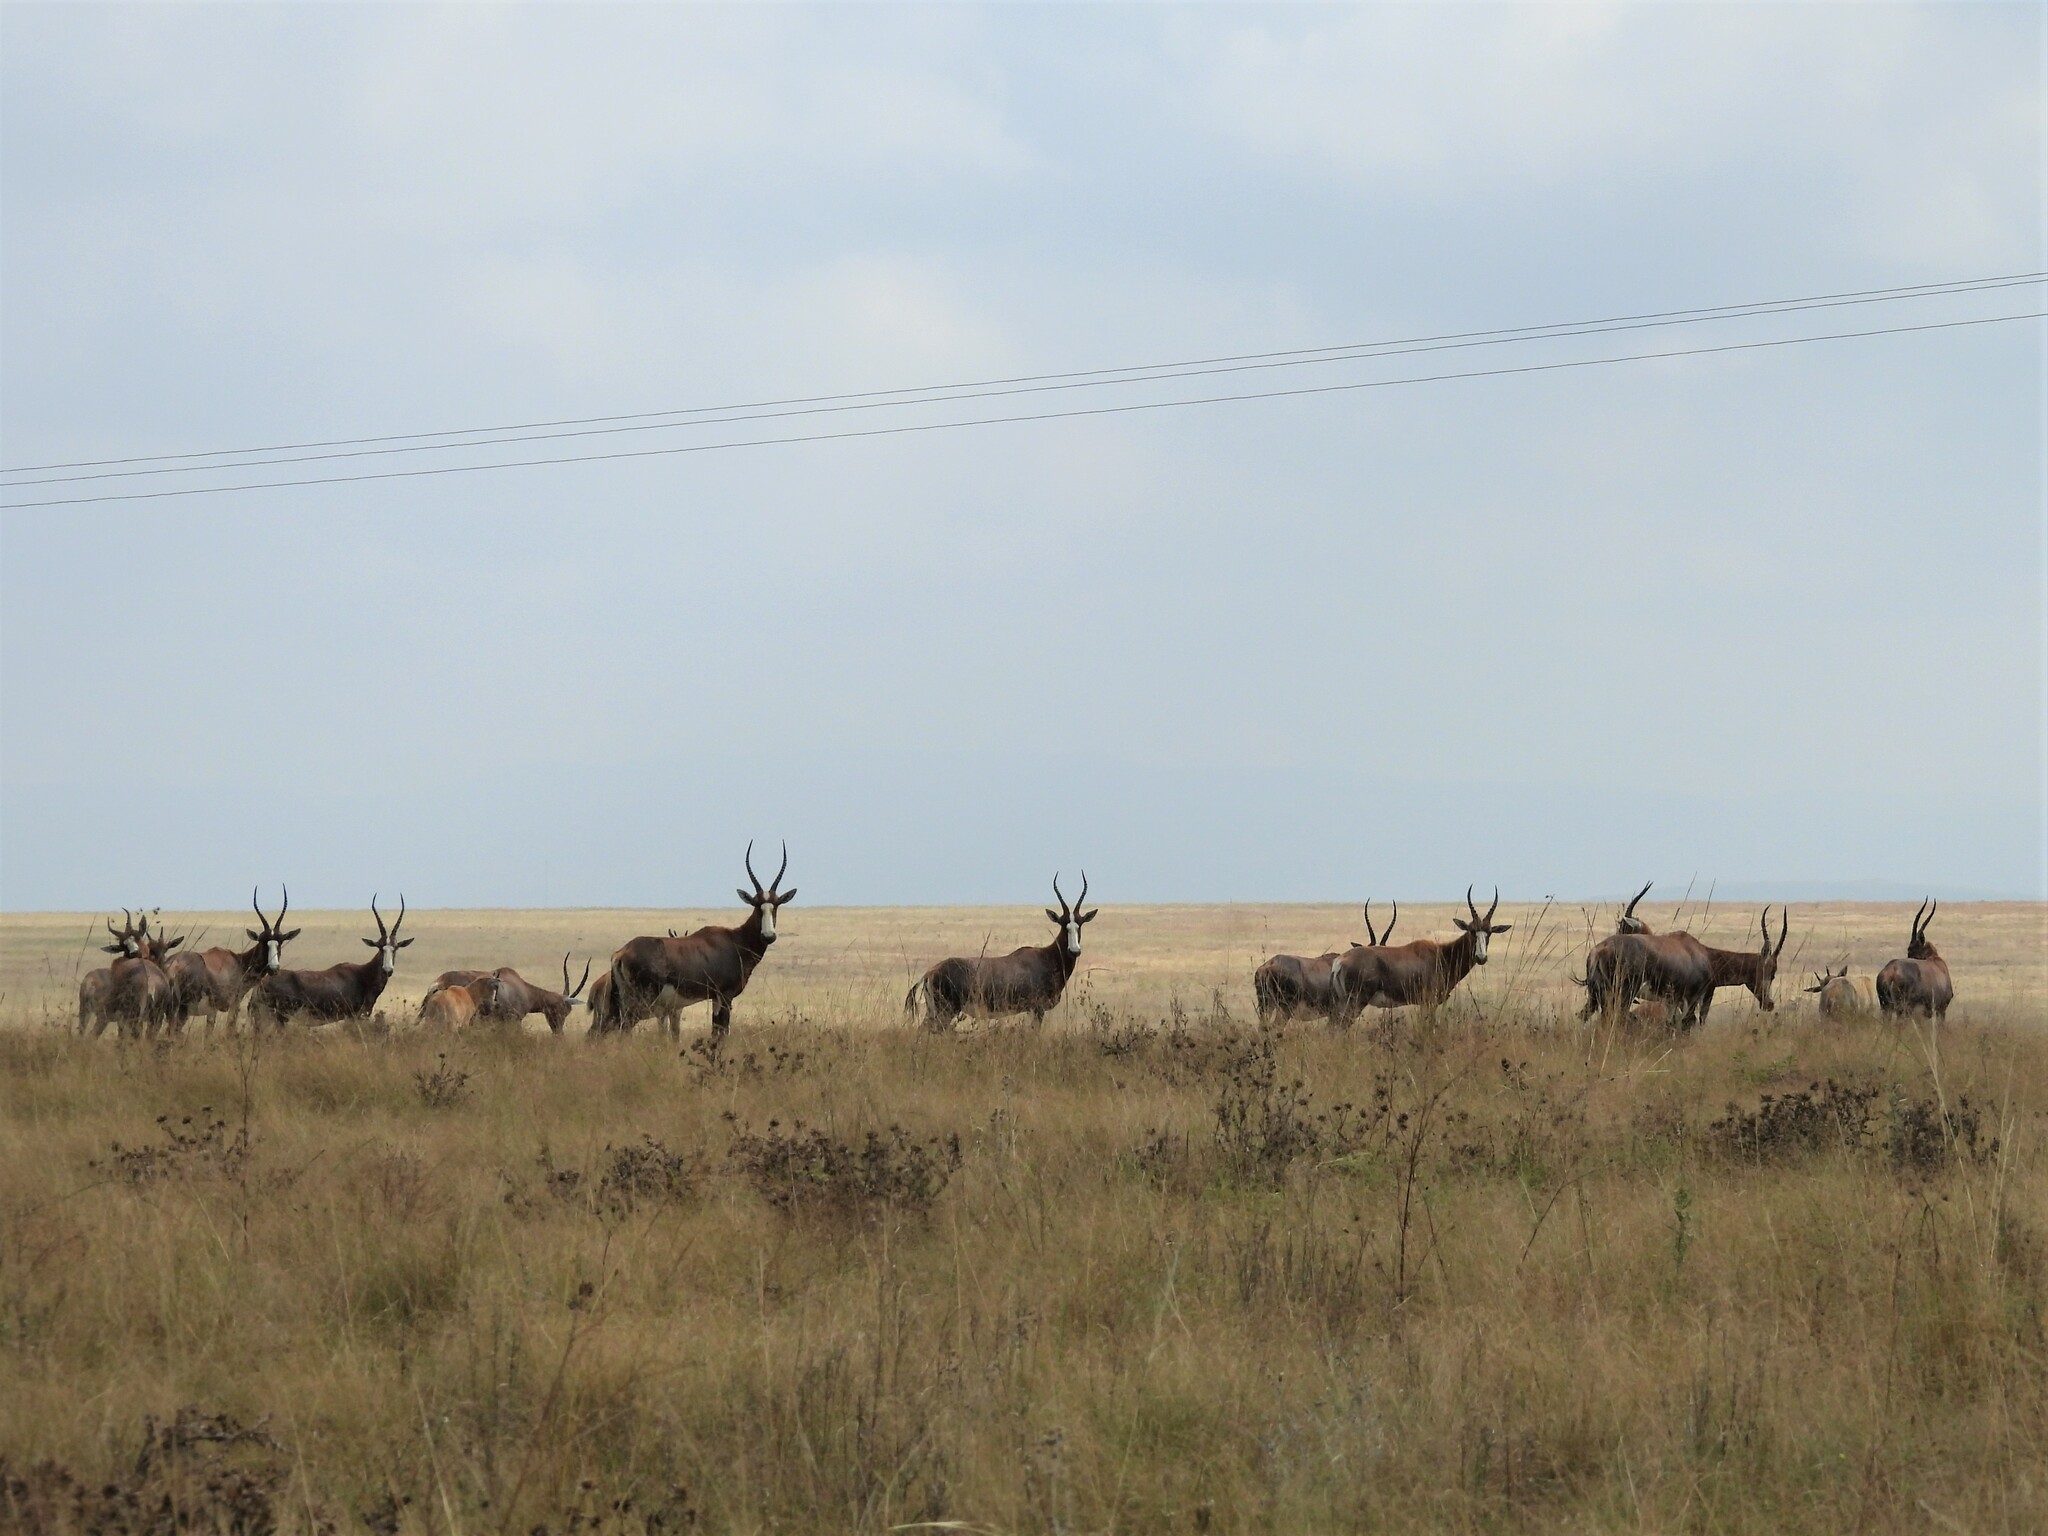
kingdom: Animalia
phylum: Chordata
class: Mammalia
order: Artiodactyla
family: Bovidae
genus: Damaliscus
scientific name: Damaliscus pygargus
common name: Bontebok
